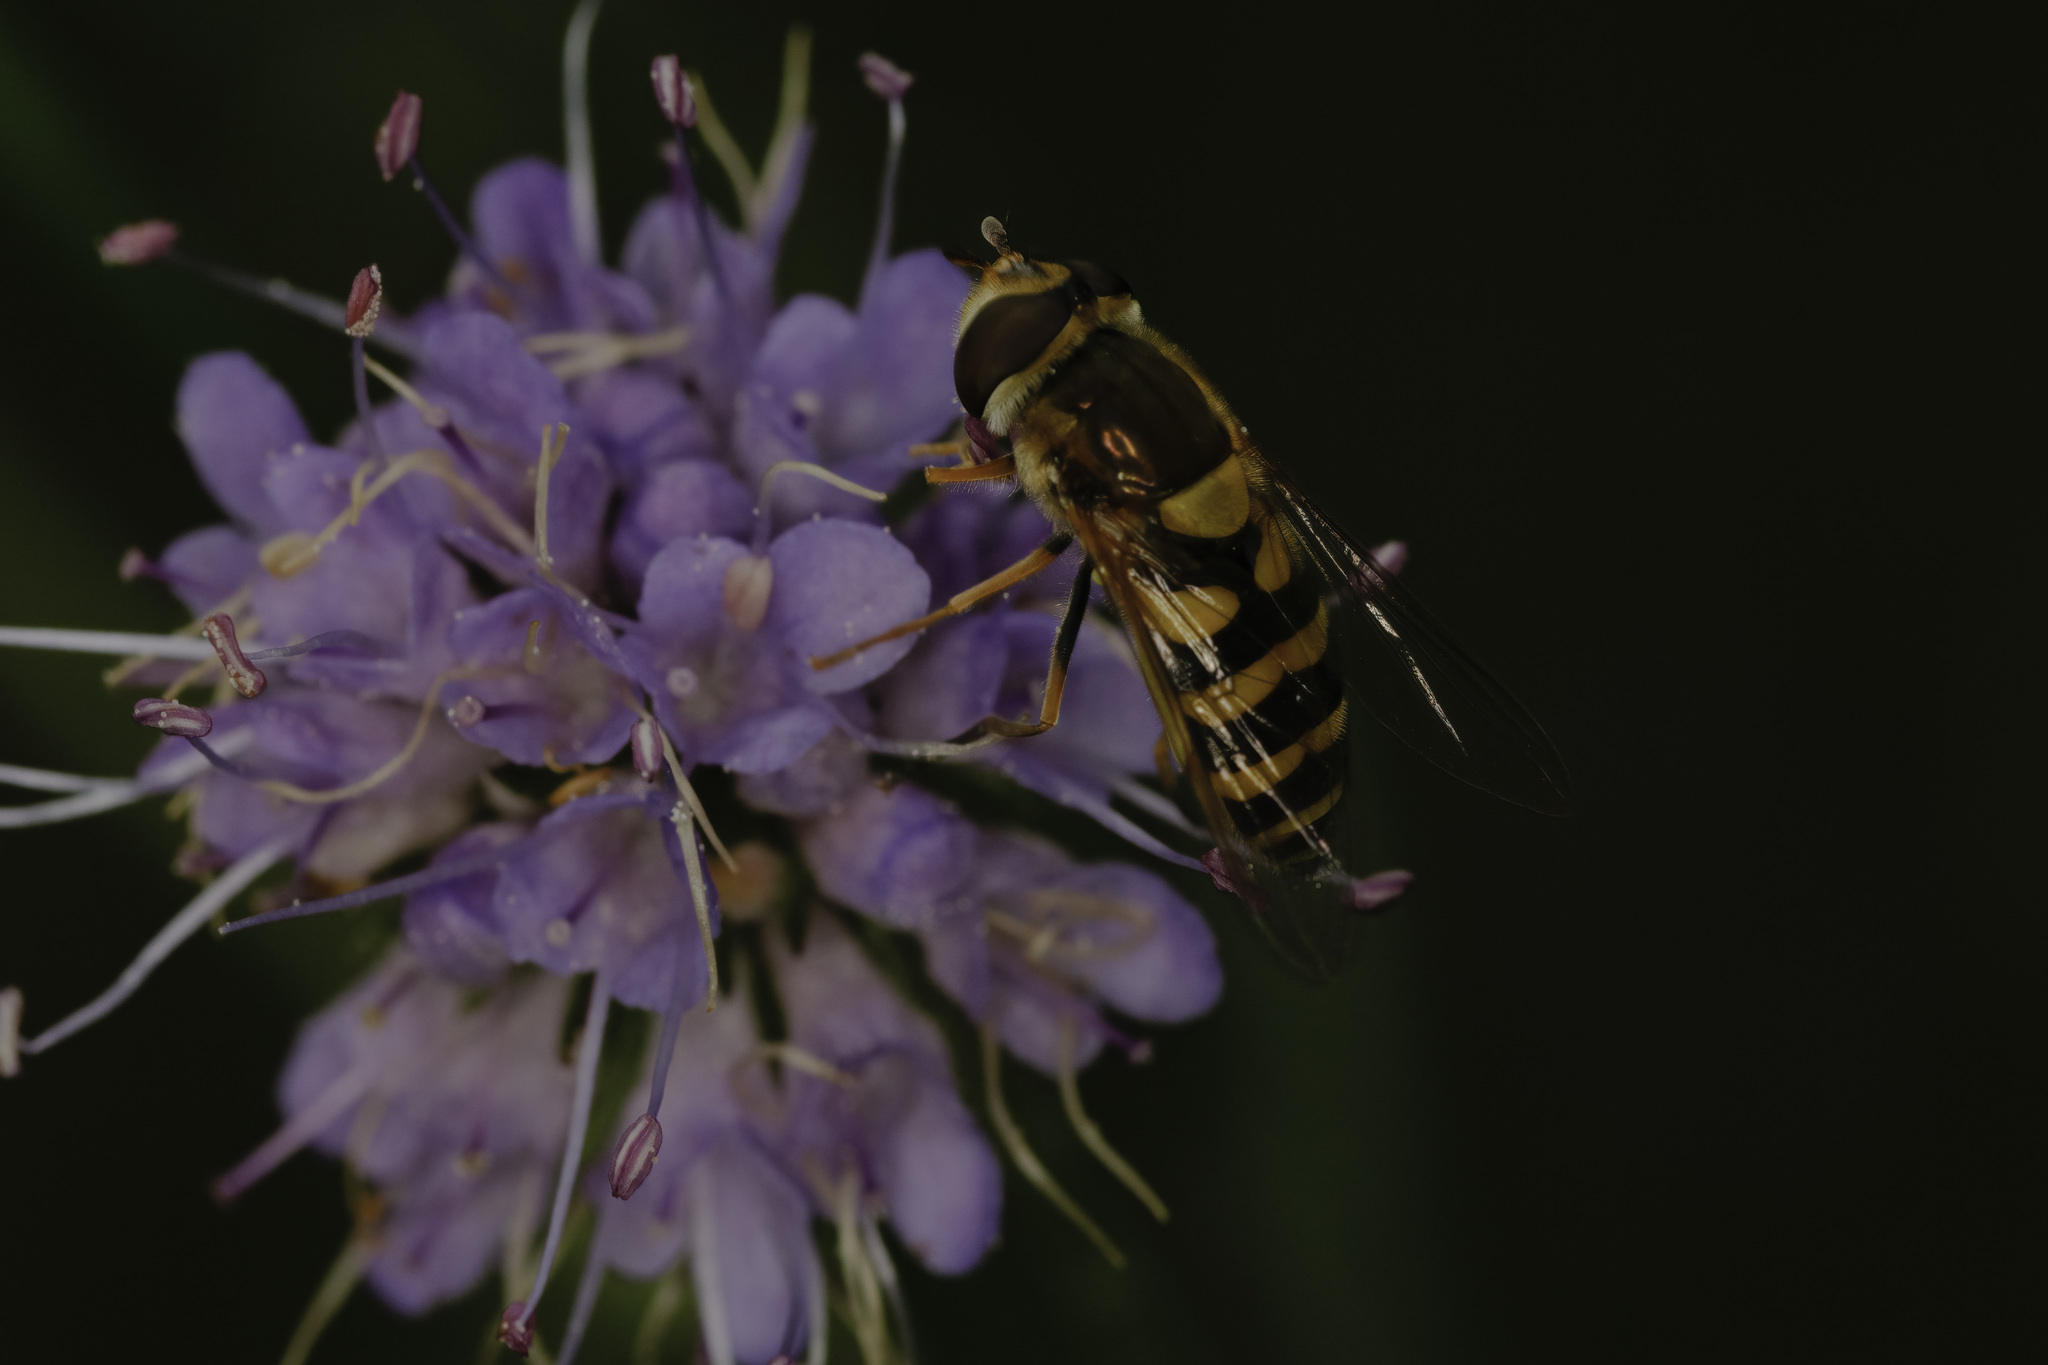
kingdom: Animalia
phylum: Arthropoda
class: Insecta
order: Diptera
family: Syrphidae
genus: Syrphus
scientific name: Syrphus
